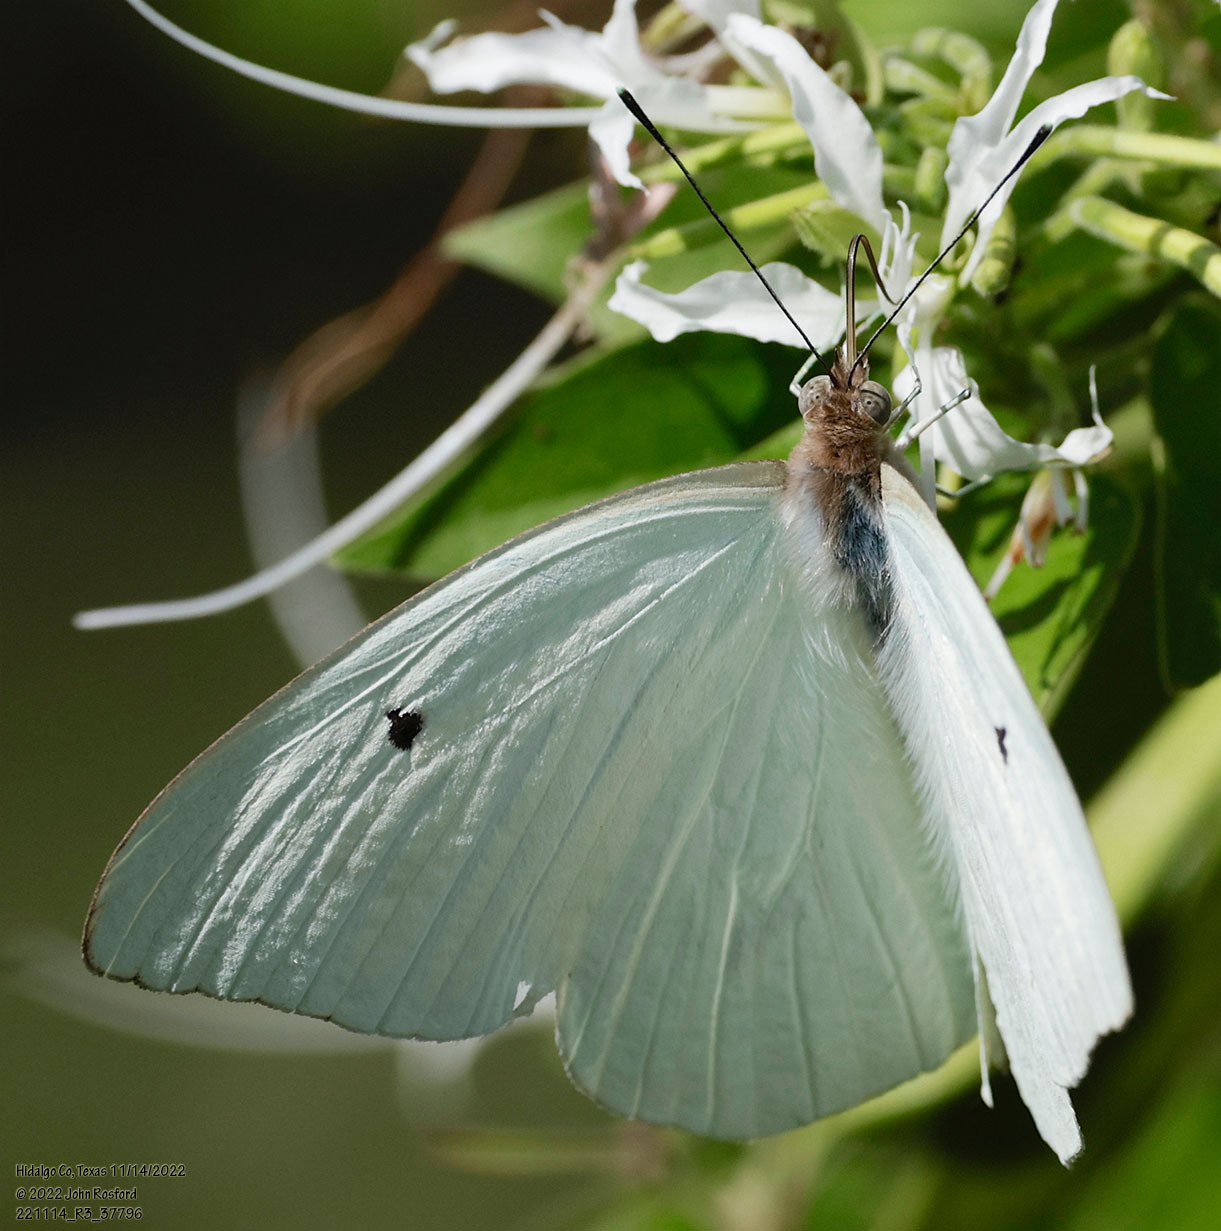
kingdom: Animalia
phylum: Arthropoda
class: Insecta
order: Lepidoptera
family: Pieridae
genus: Ganyra
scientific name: Ganyra josephina
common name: Giant white
